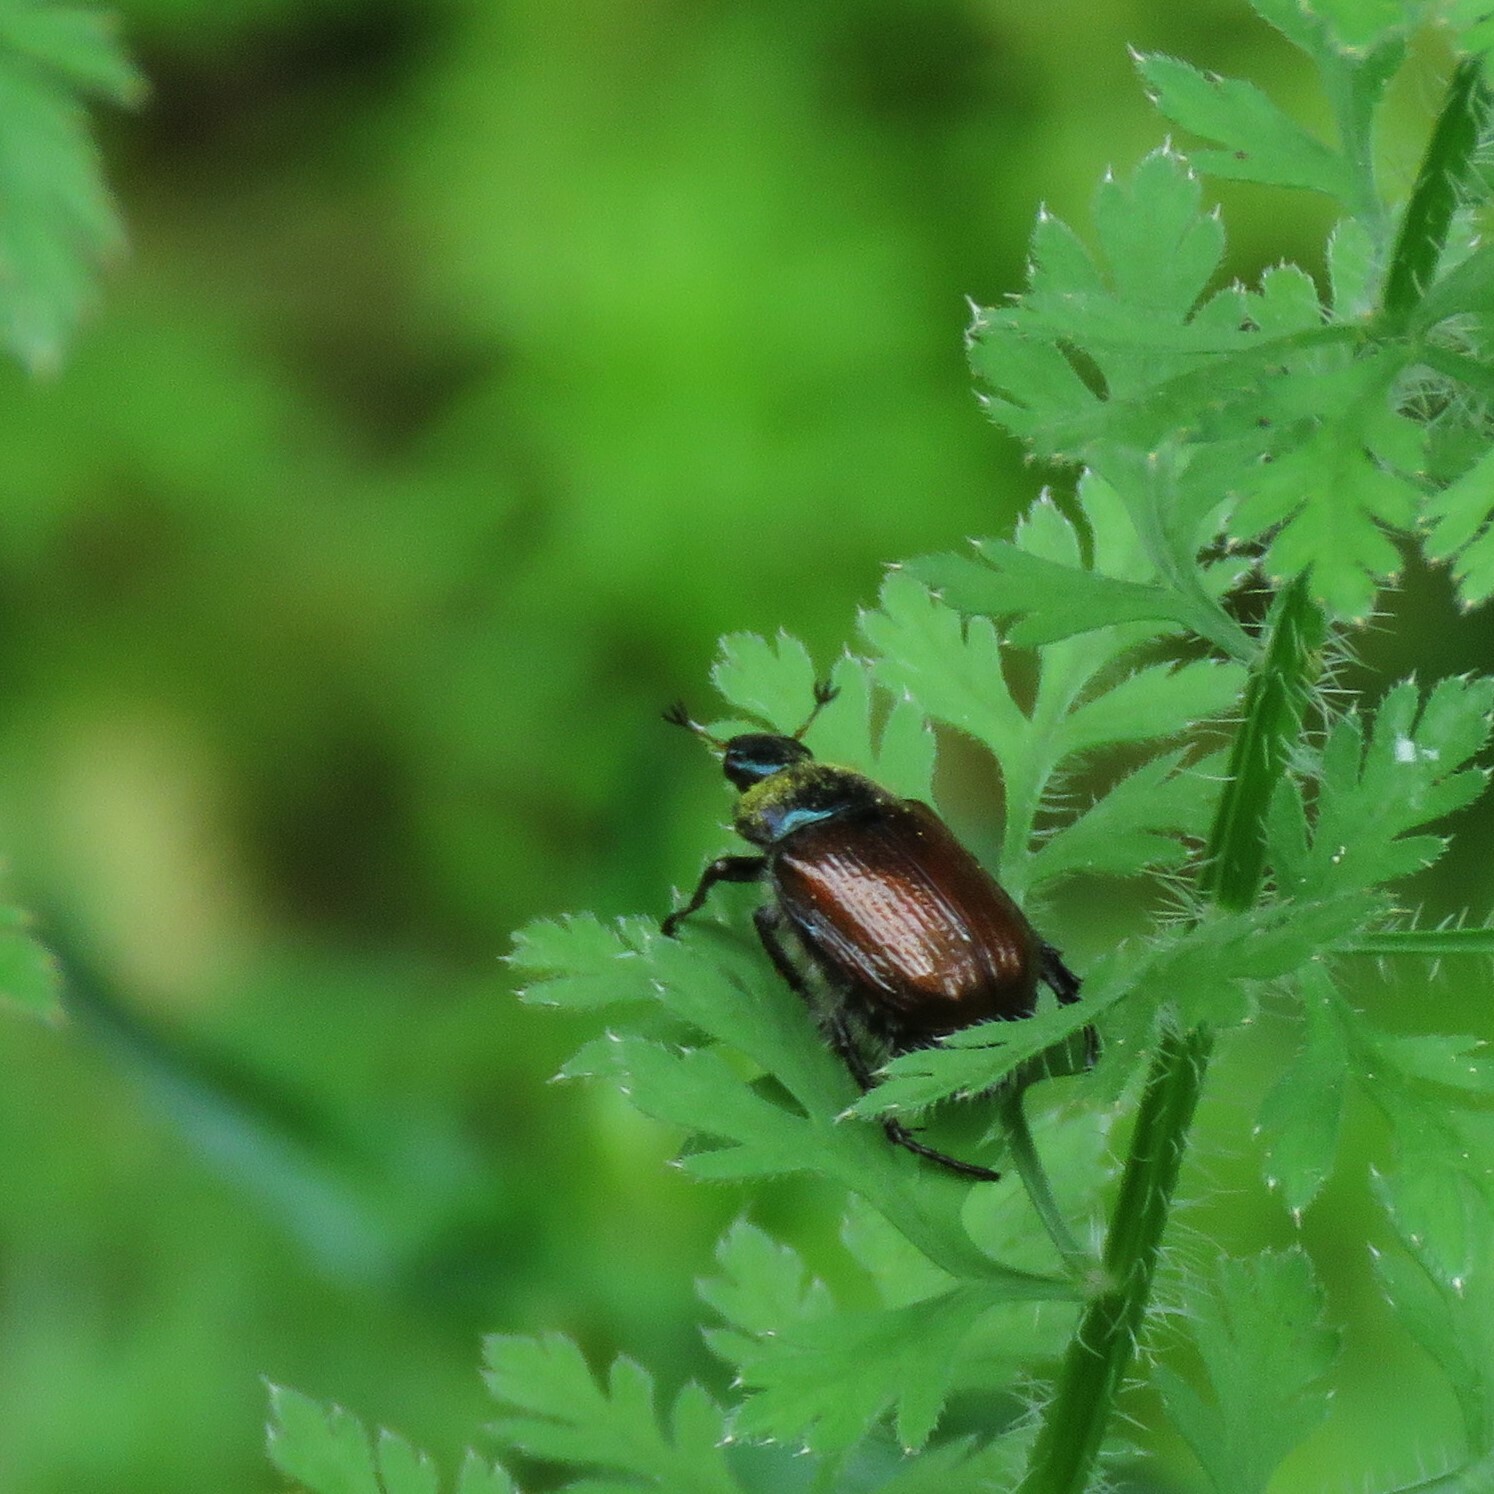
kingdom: Animalia
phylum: Arthropoda
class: Insecta
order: Coleoptera
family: Scarabaeidae
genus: Phyllopertha
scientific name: Phyllopertha horticola
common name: Garden chafer
